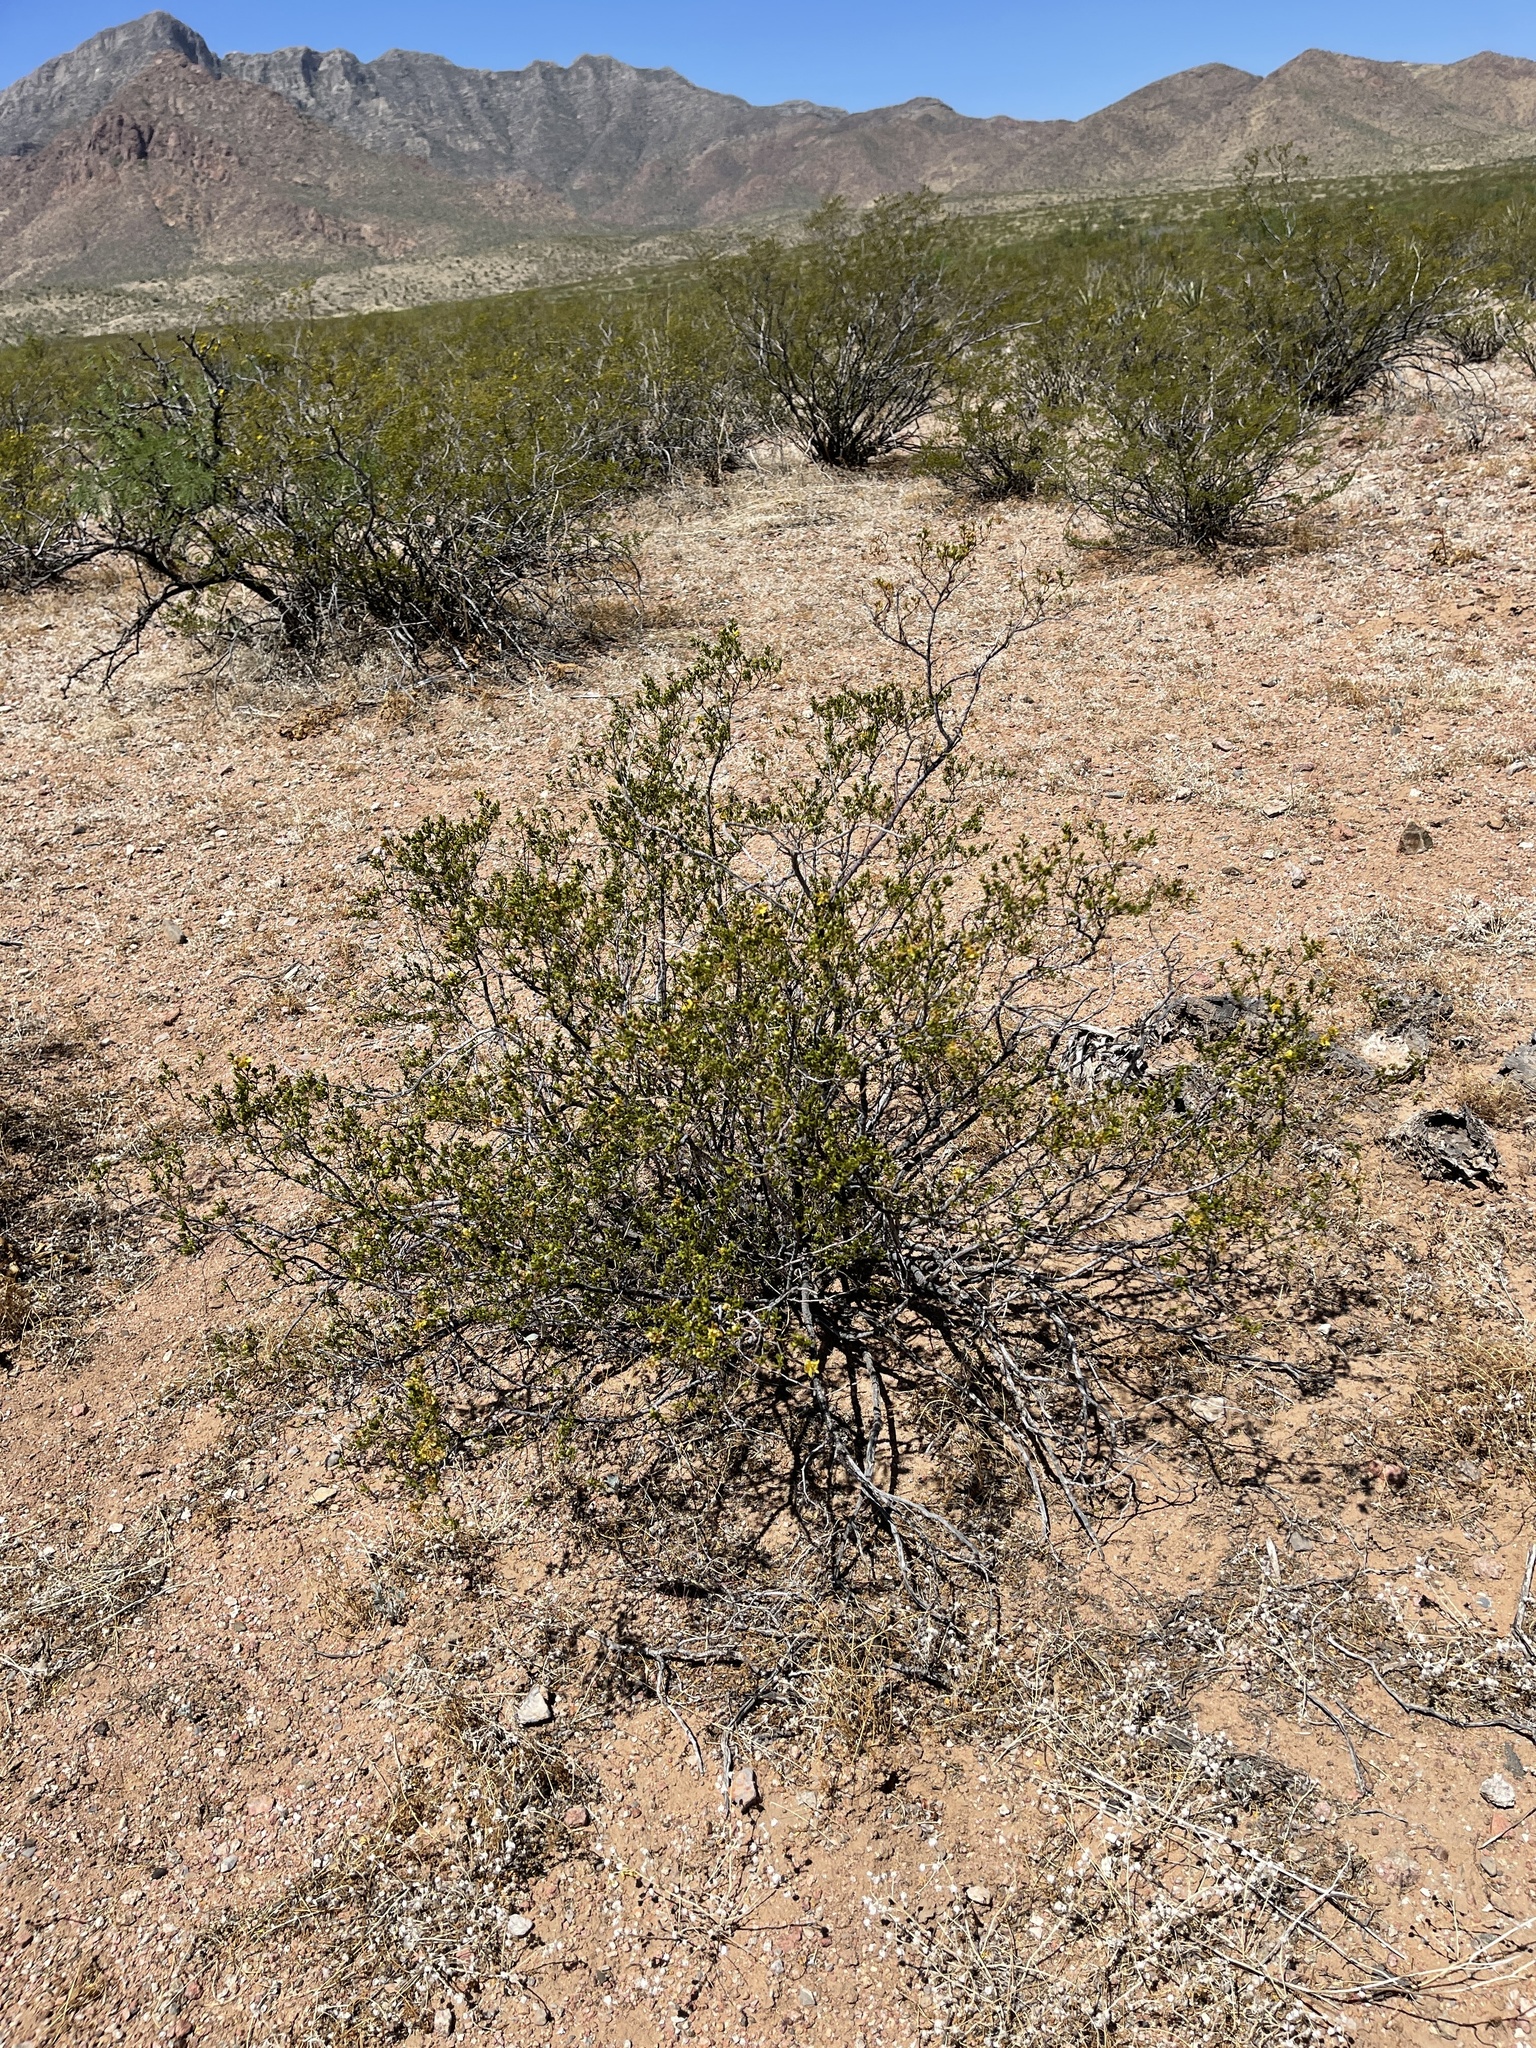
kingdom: Plantae
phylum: Tracheophyta
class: Magnoliopsida
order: Zygophyllales
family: Zygophyllaceae
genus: Larrea
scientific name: Larrea tridentata
